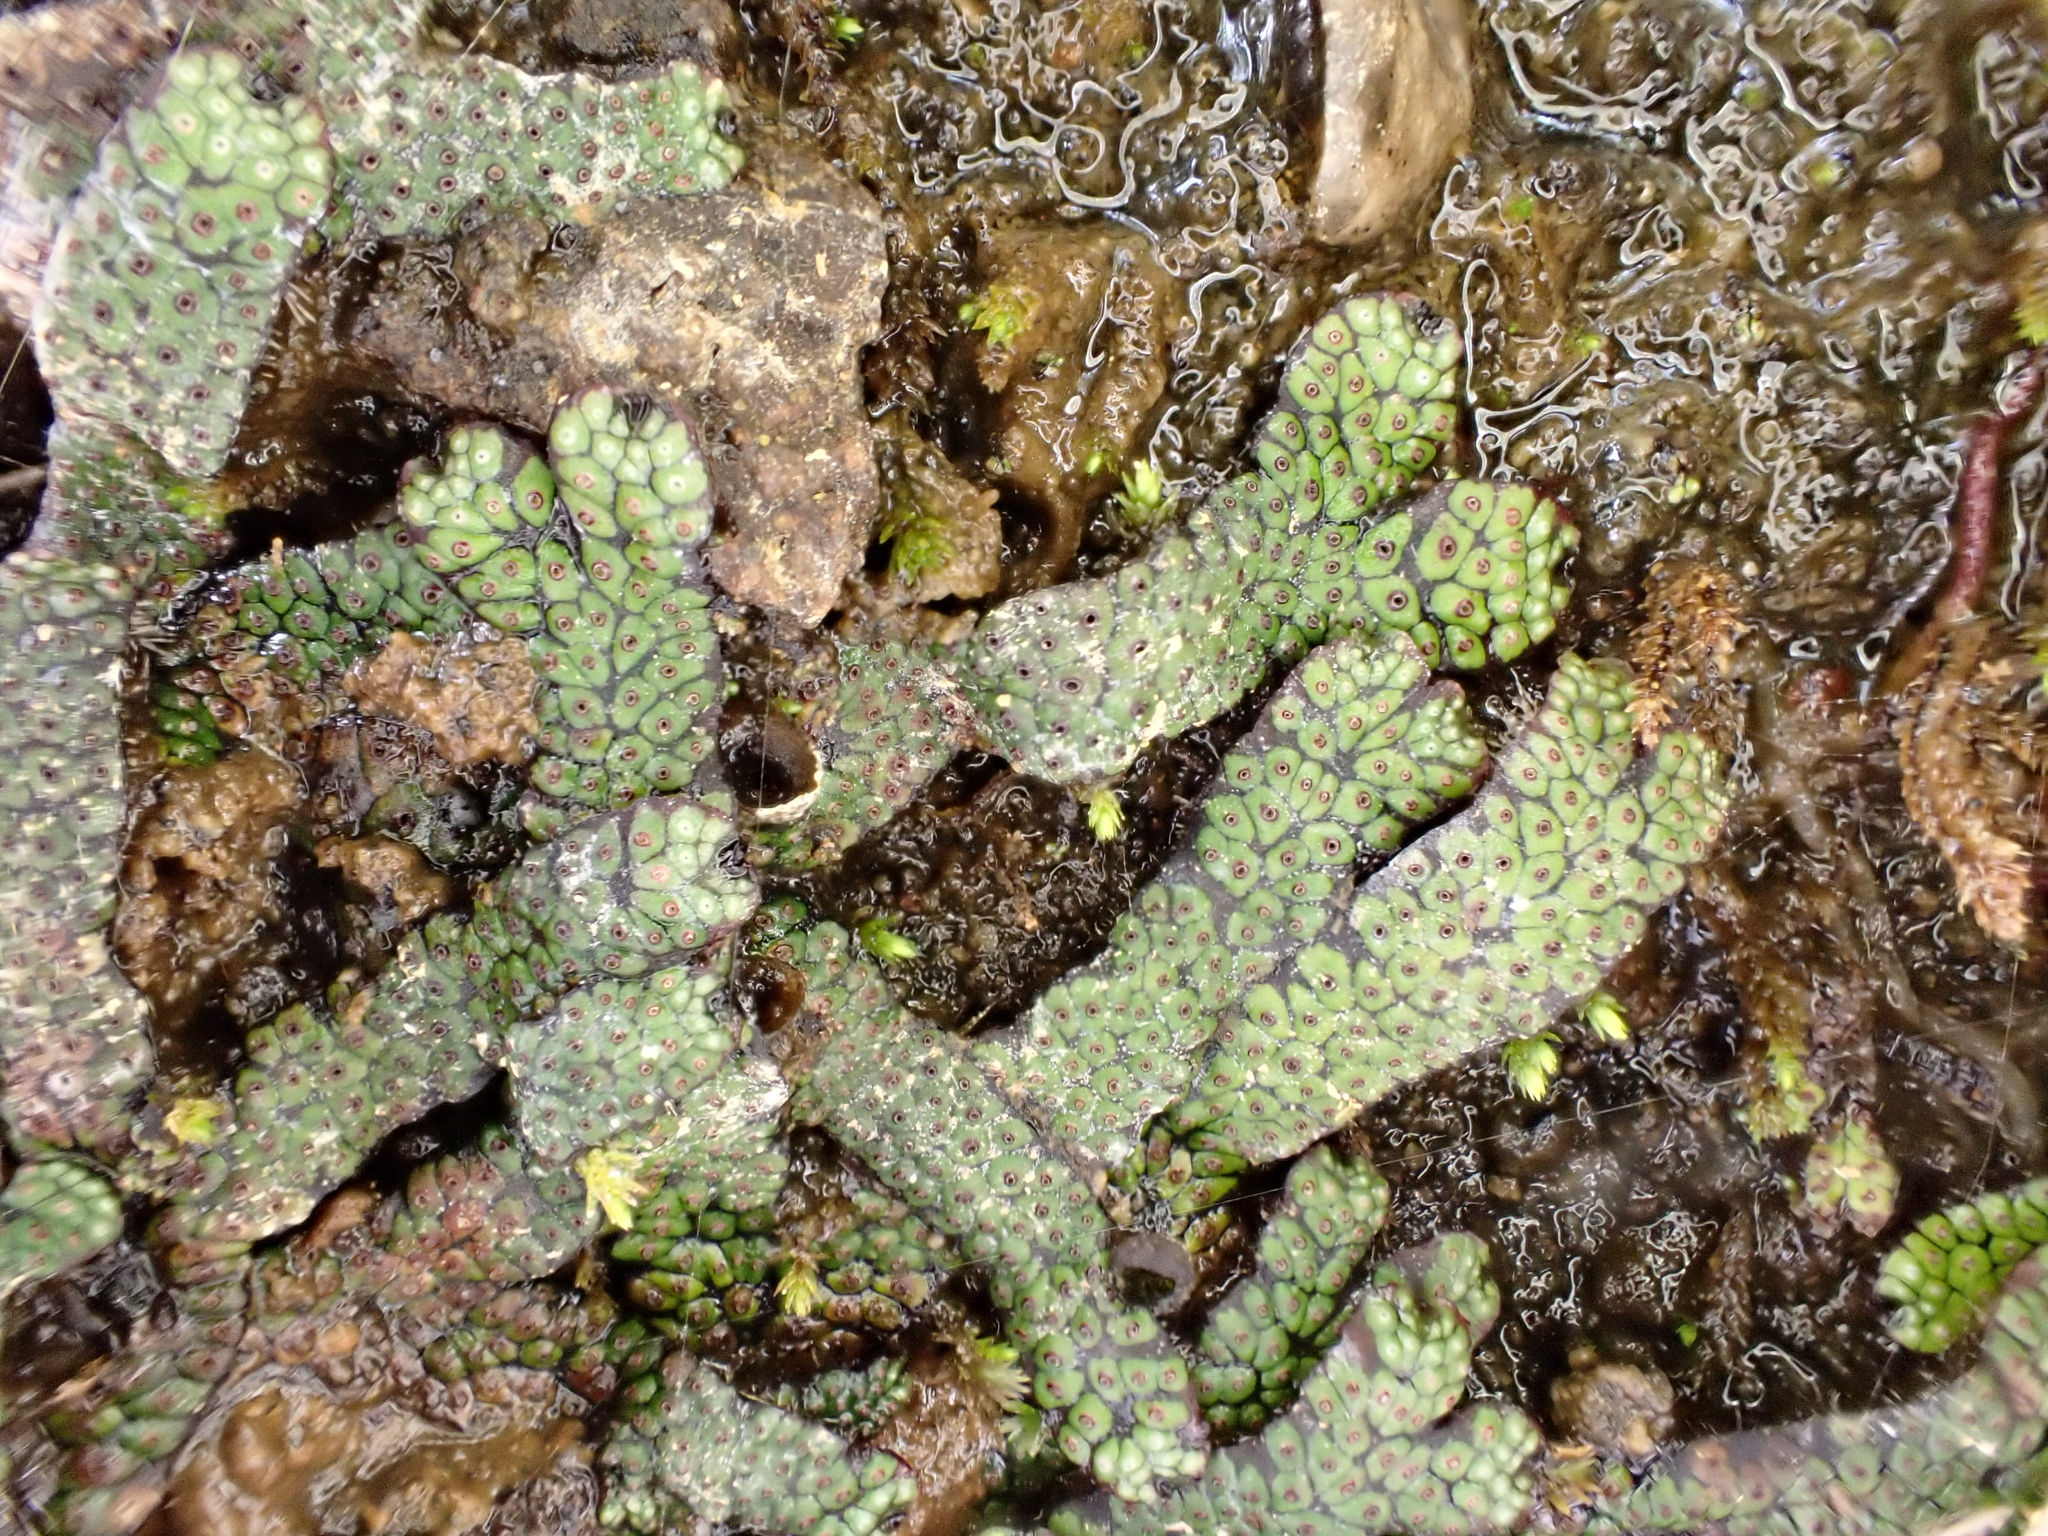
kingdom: Plantae
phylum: Marchantiophyta
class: Marchantiopsida
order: Marchantiales
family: Marchantiaceae
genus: Marchantia
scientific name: Marchantia macropora
